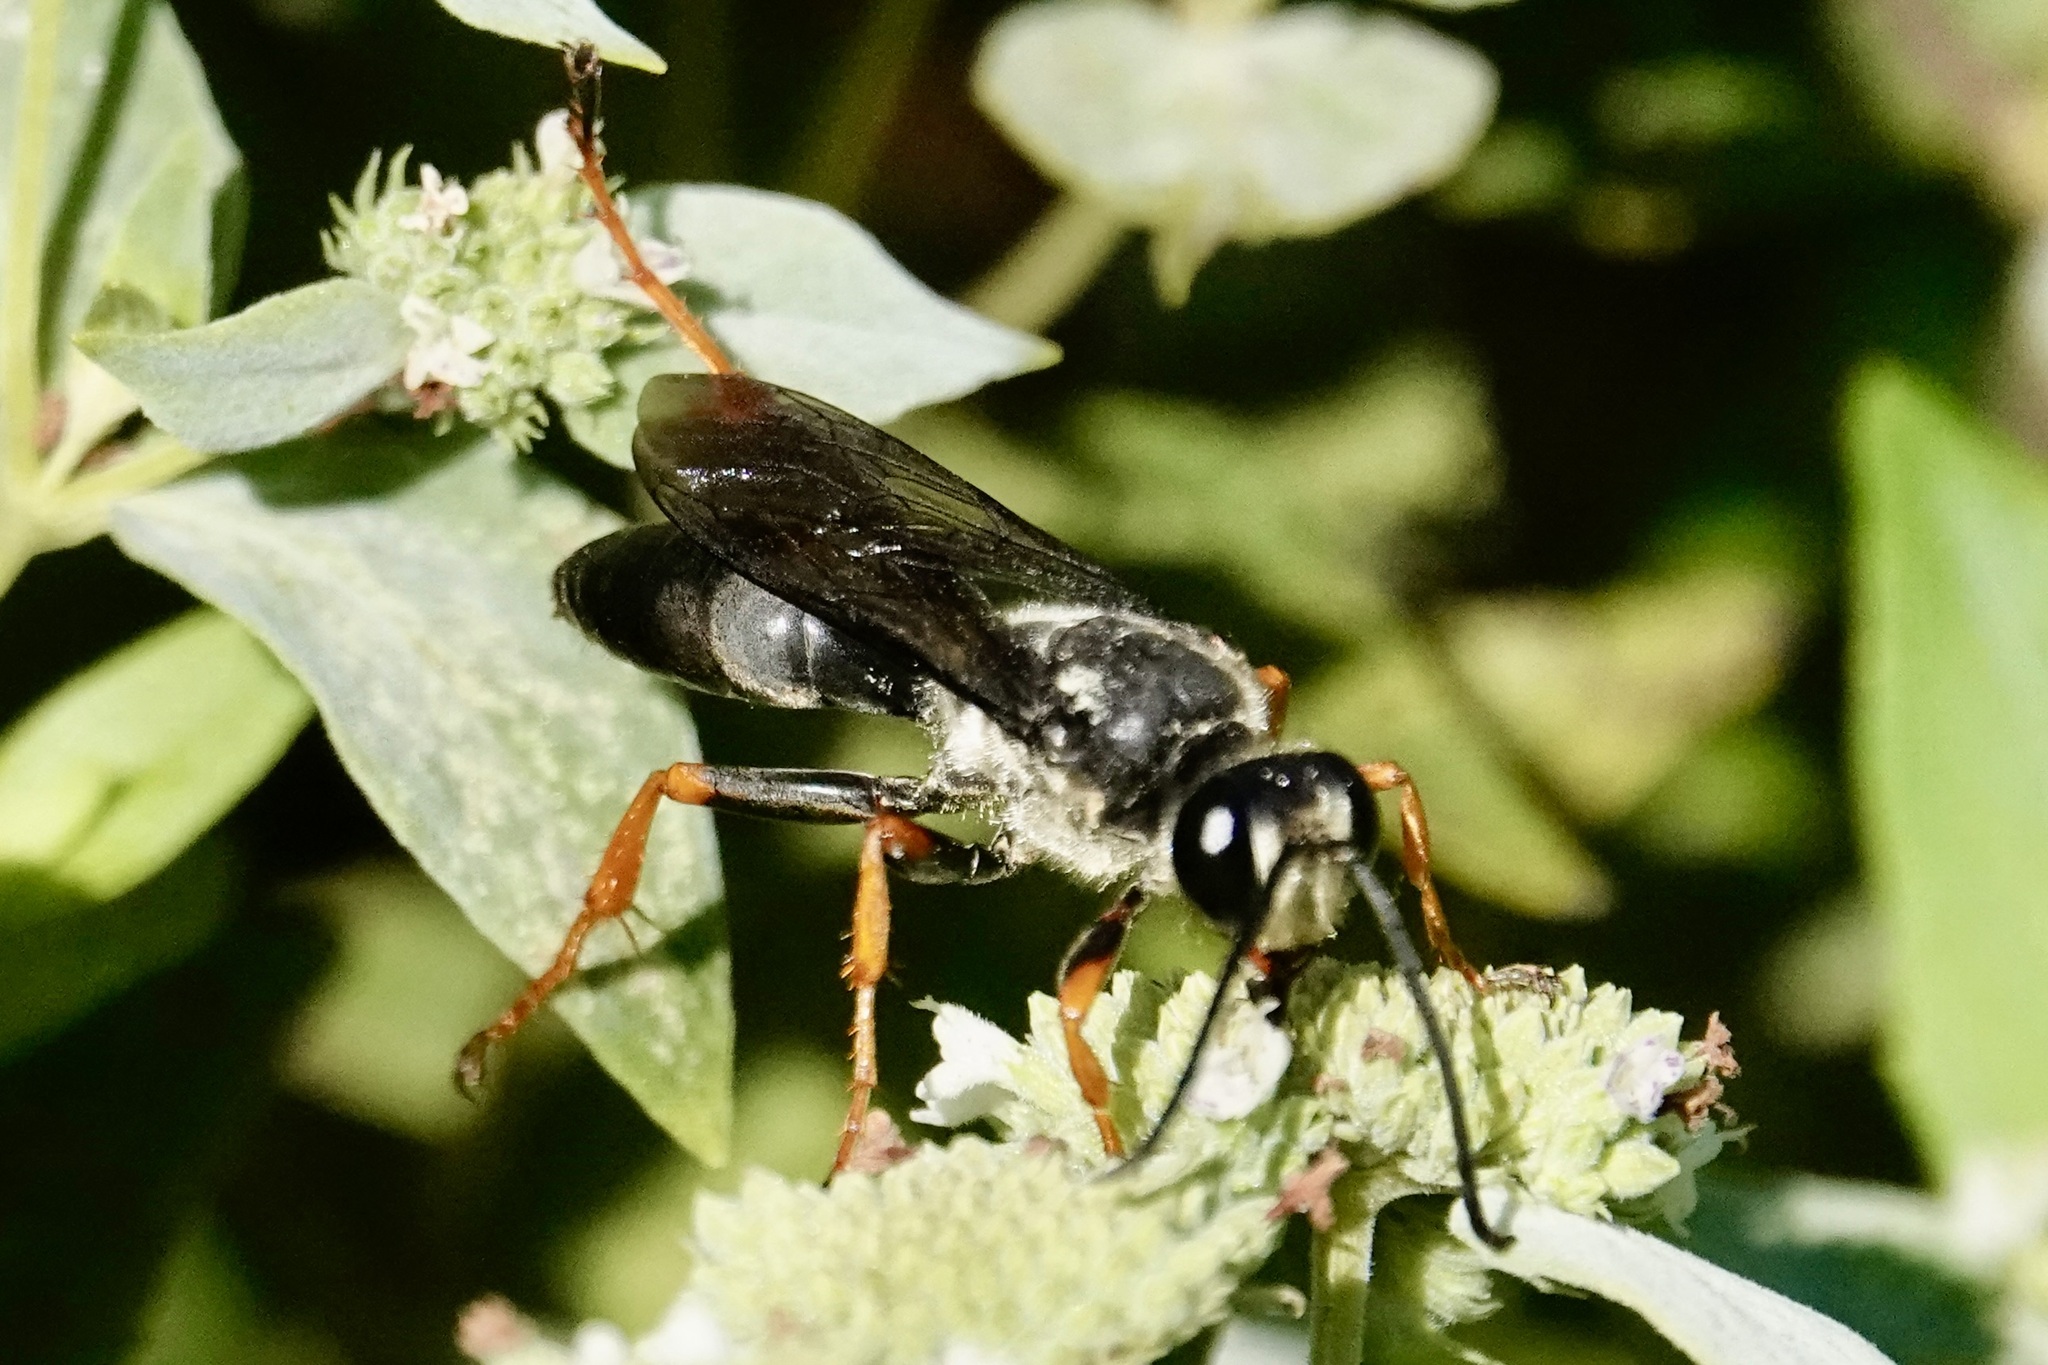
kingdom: Animalia
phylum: Arthropoda
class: Insecta
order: Hymenoptera
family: Sphecidae
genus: Sphex
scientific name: Sphex nudus
